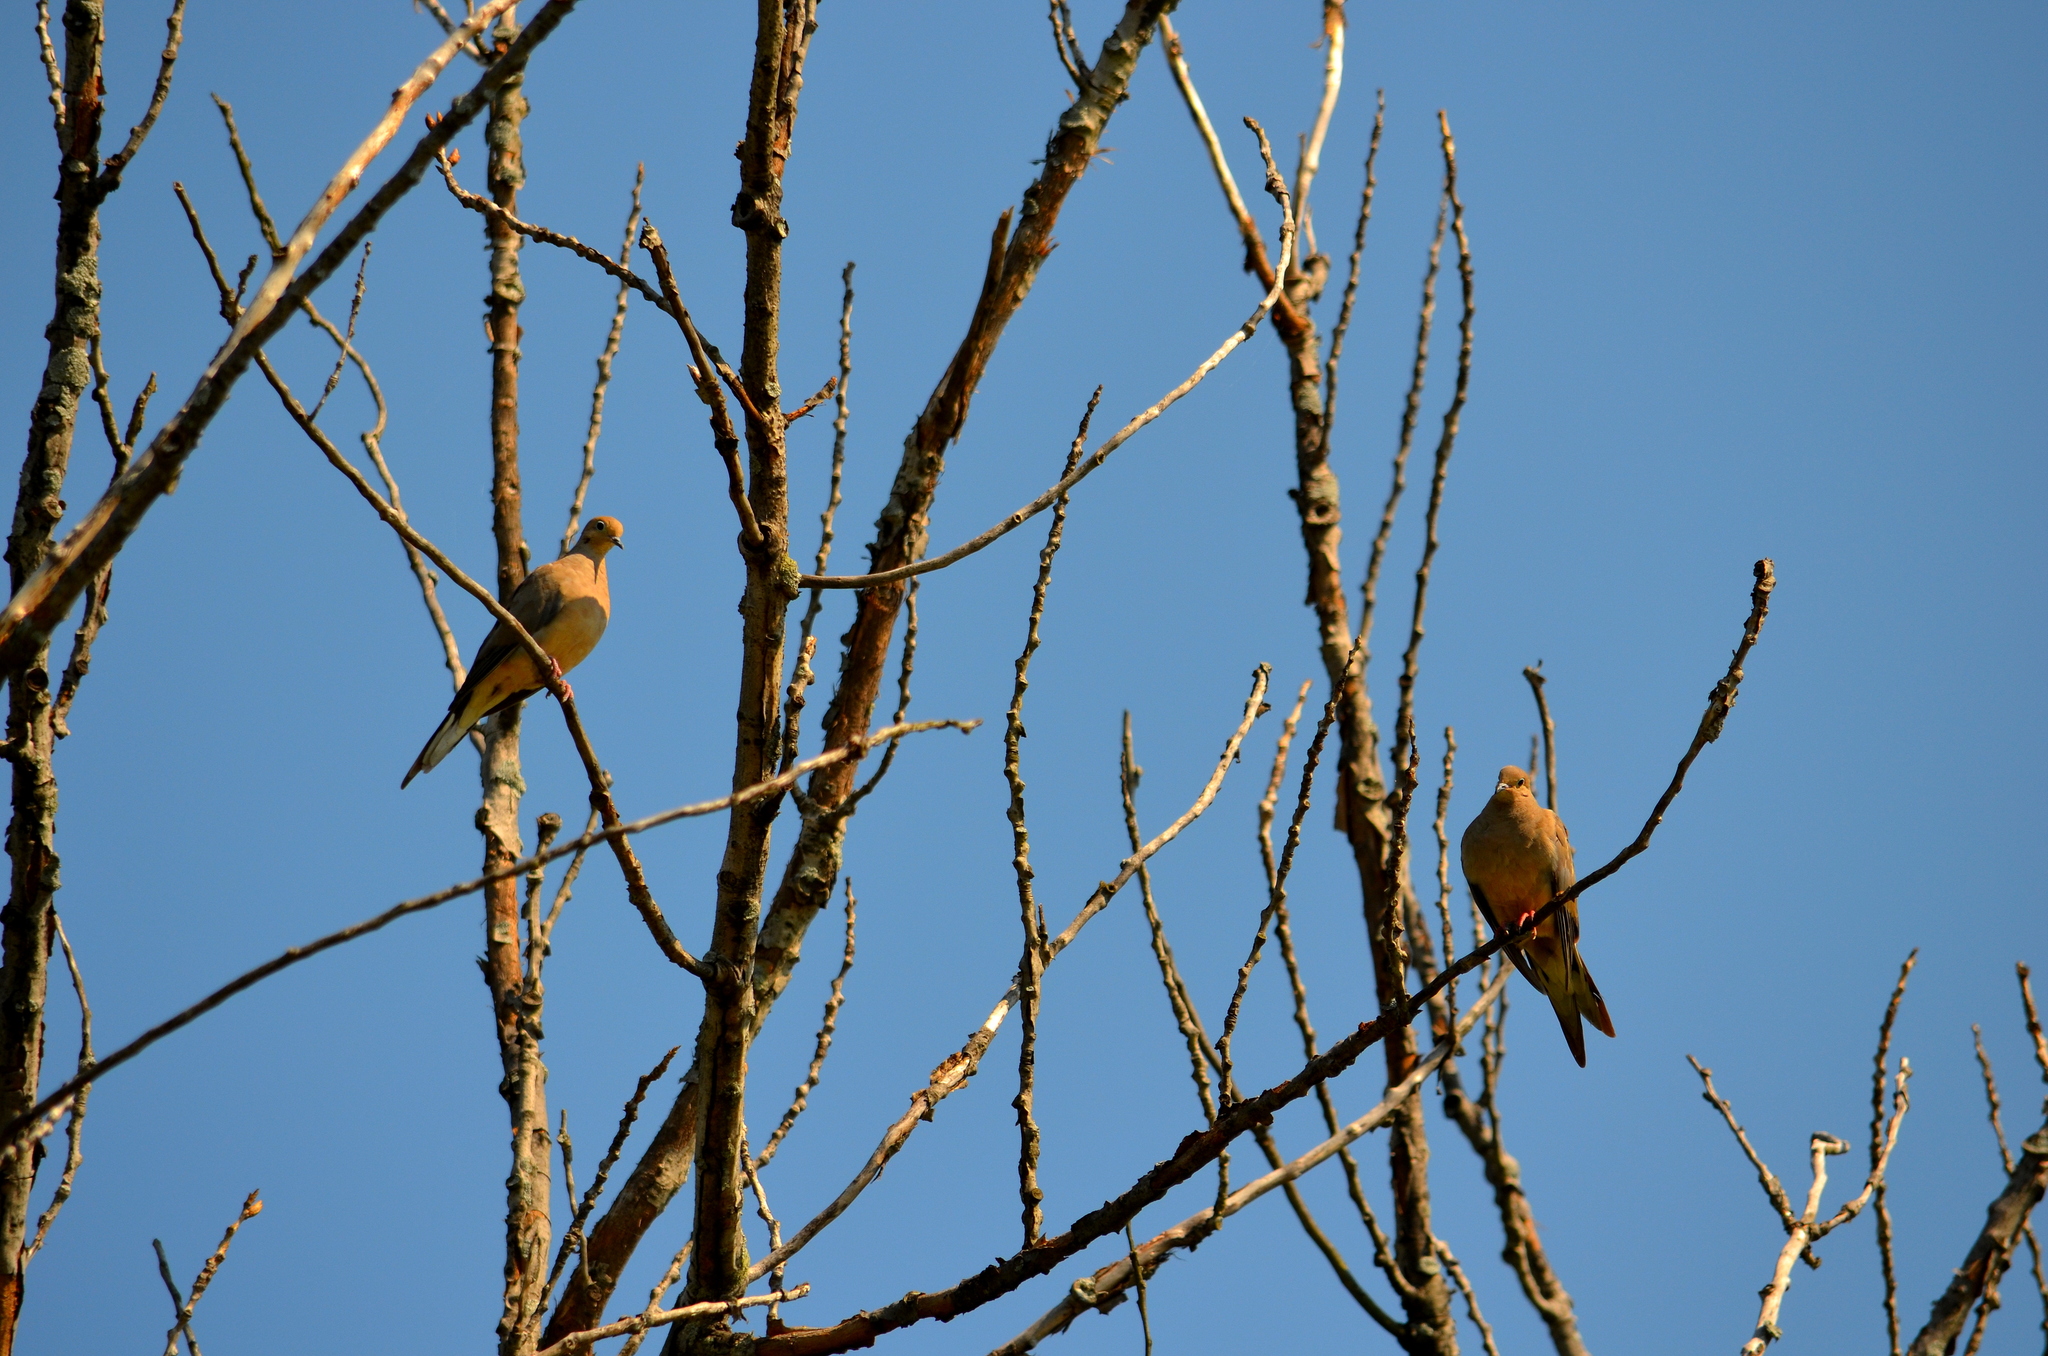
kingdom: Animalia
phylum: Chordata
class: Aves
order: Columbiformes
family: Columbidae
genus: Zenaida
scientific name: Zenaida macroura
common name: Mourning dove
